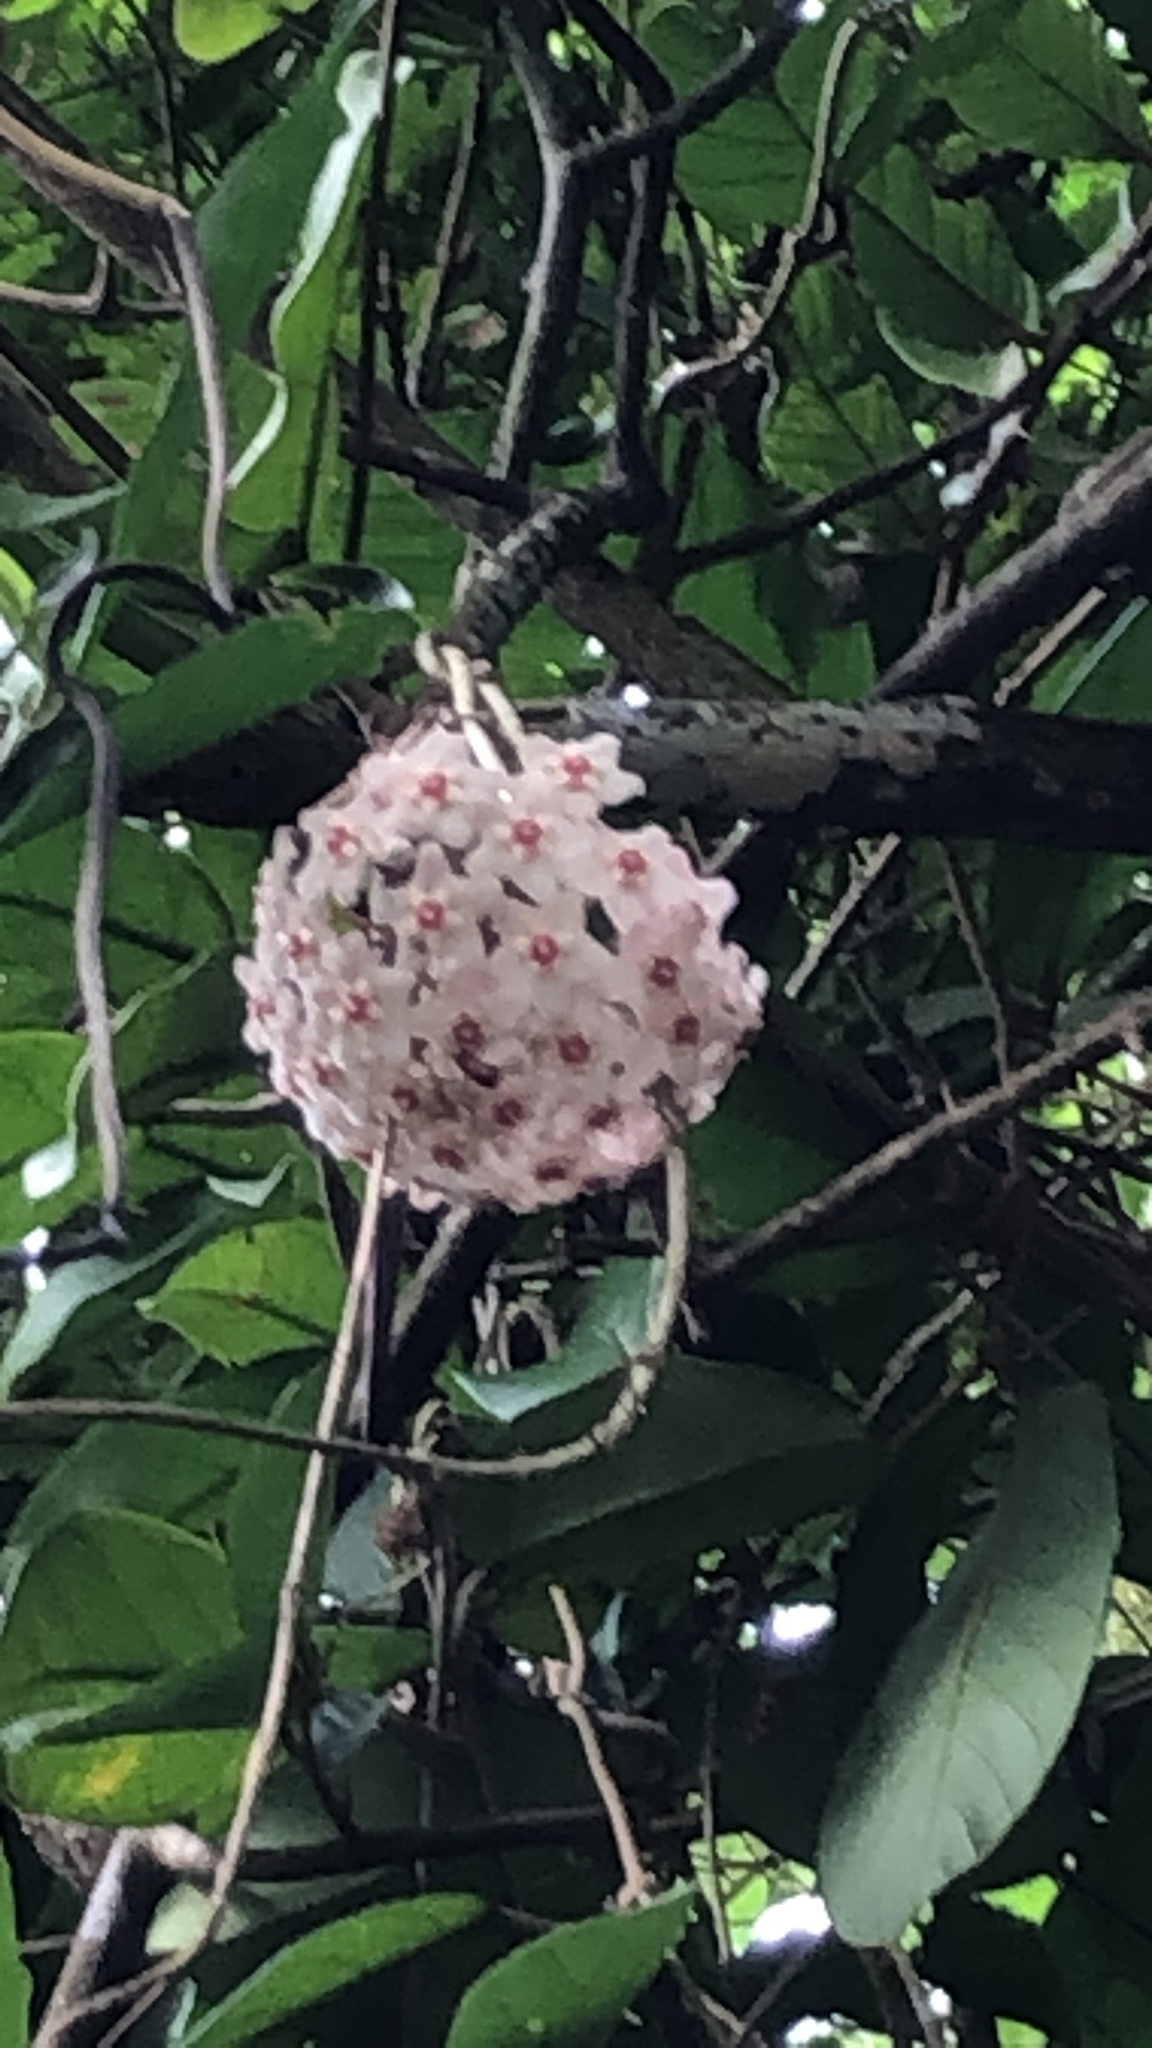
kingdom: Plantae
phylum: Tracheophyta
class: Magnoliopsida
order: Gentianales
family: Apocynaceae
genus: Hoya
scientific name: Hoya carnosa
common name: Honeyplant
